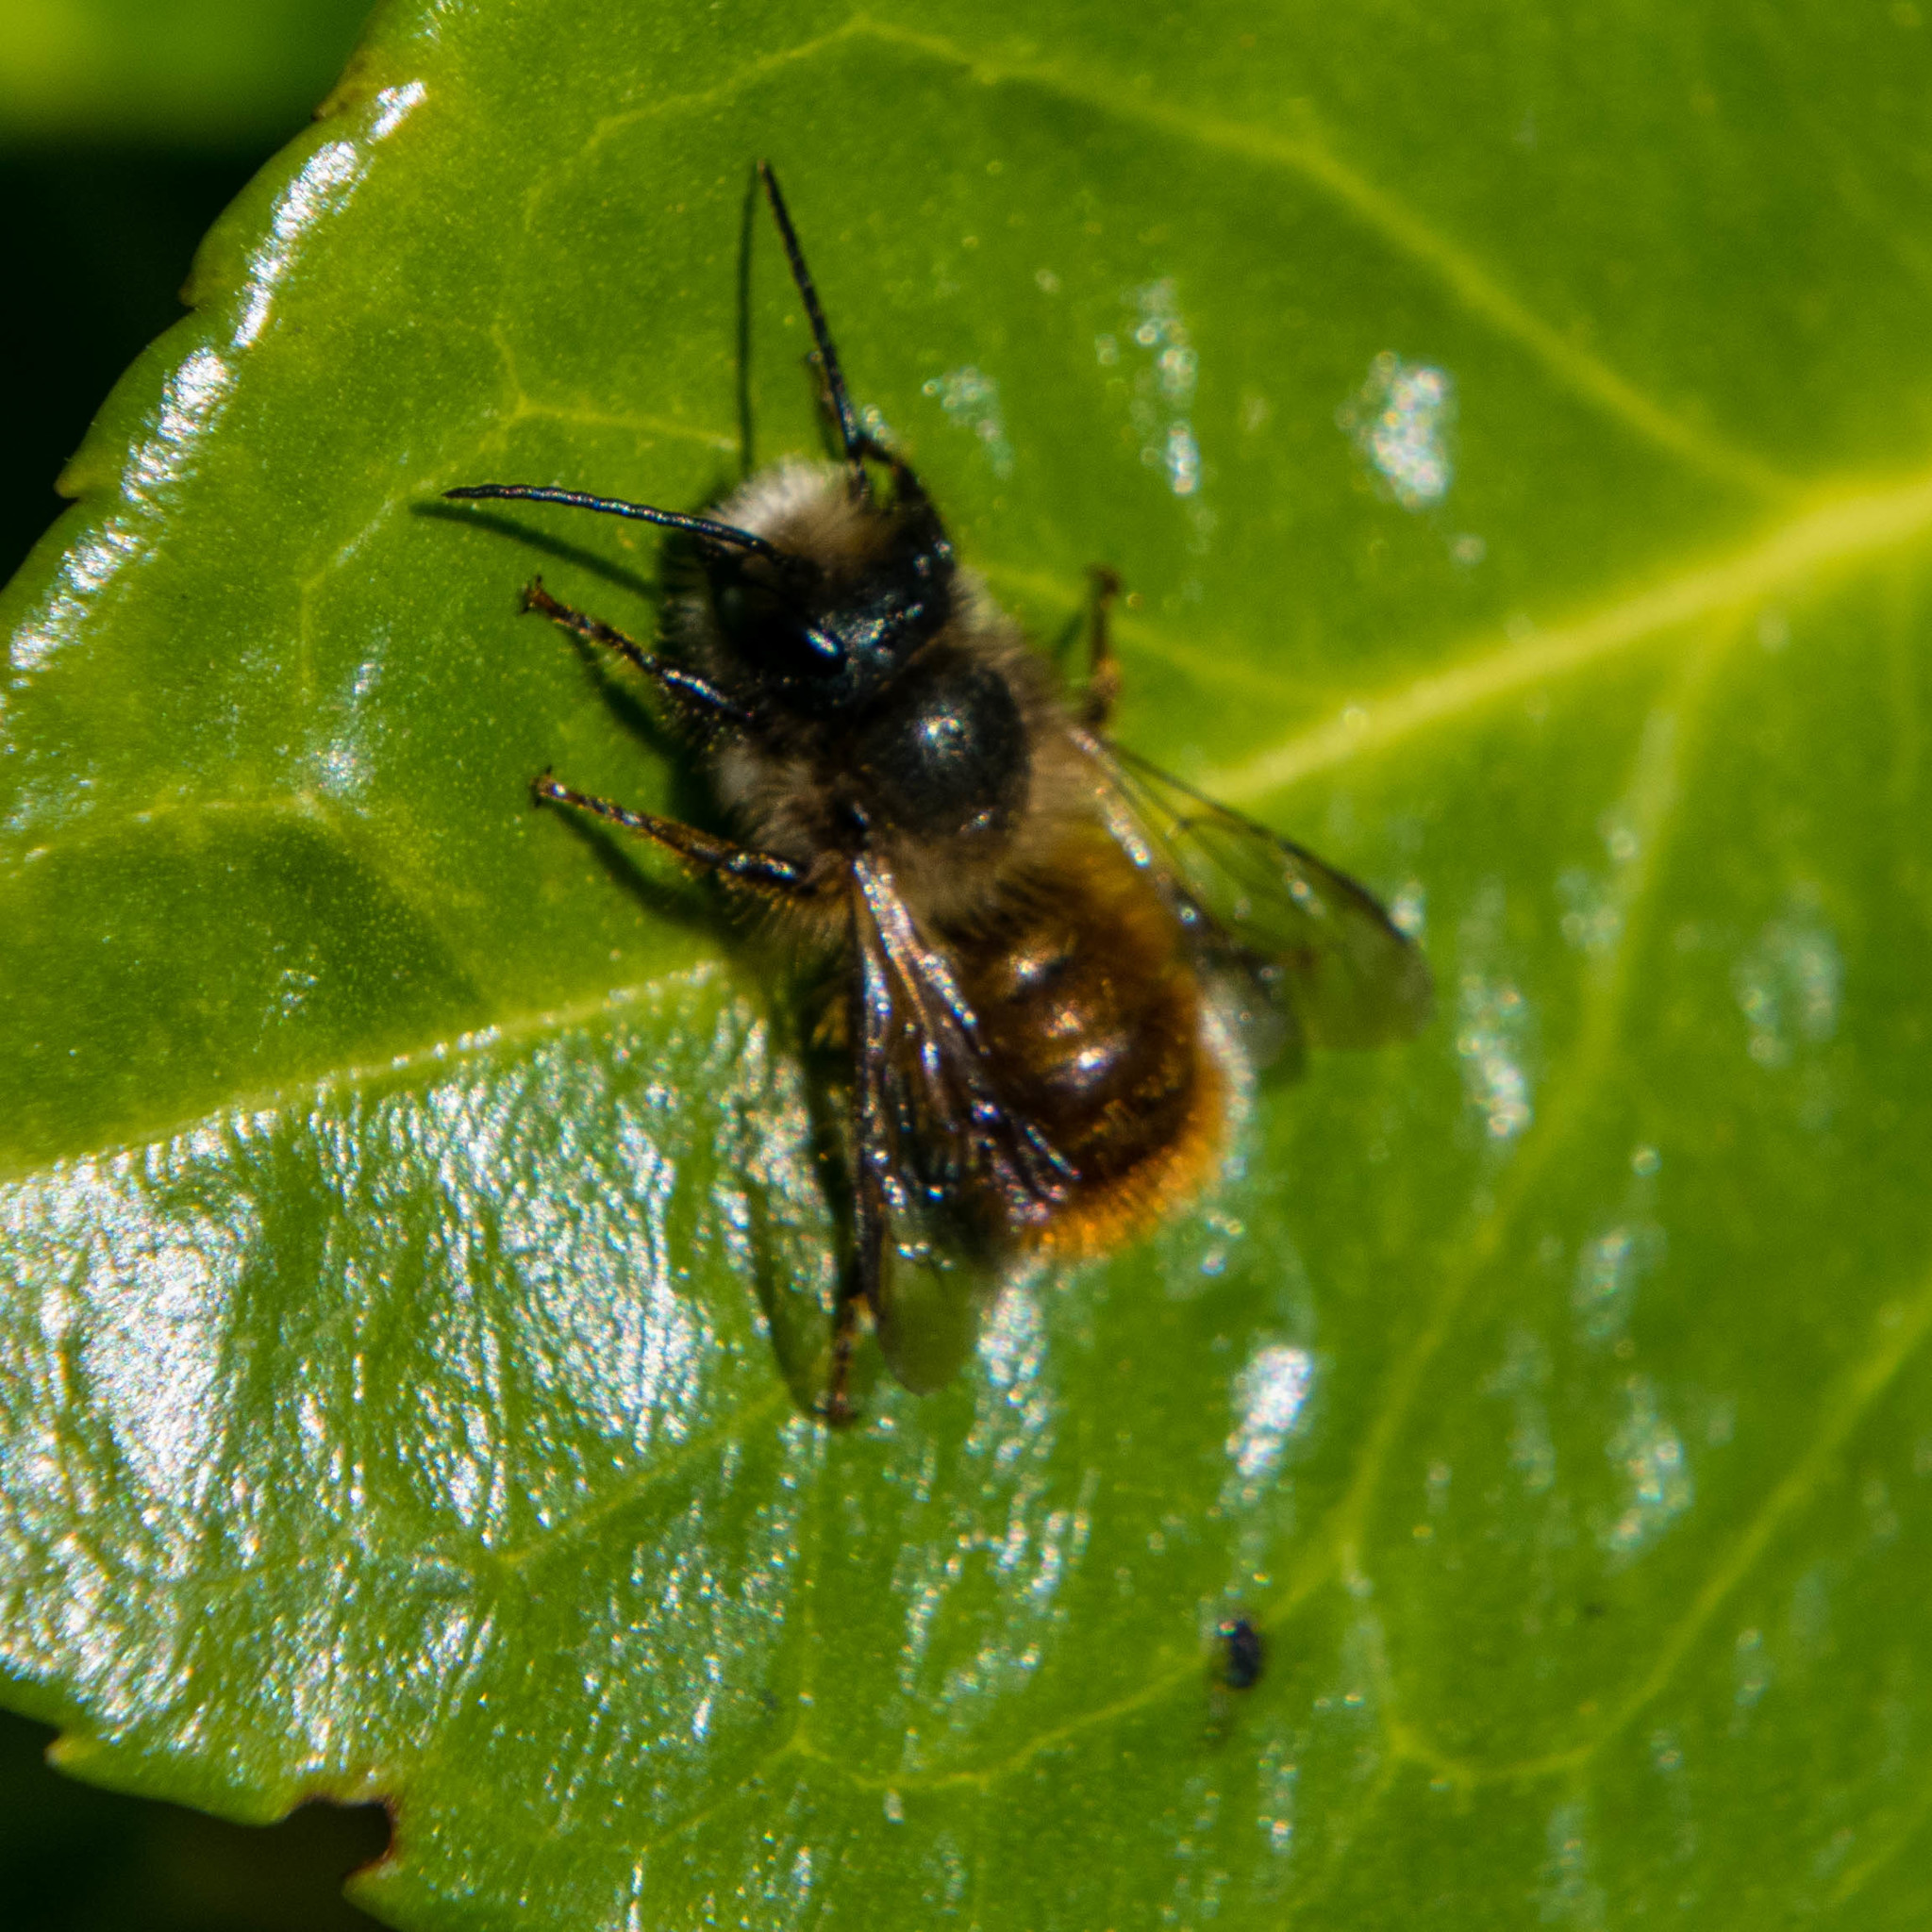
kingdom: Animalia
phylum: Arthropoda
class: Insecta
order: Hymenoptera
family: Megachilidae
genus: Osmia
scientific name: Osmia bicornis
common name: Red mason bee
